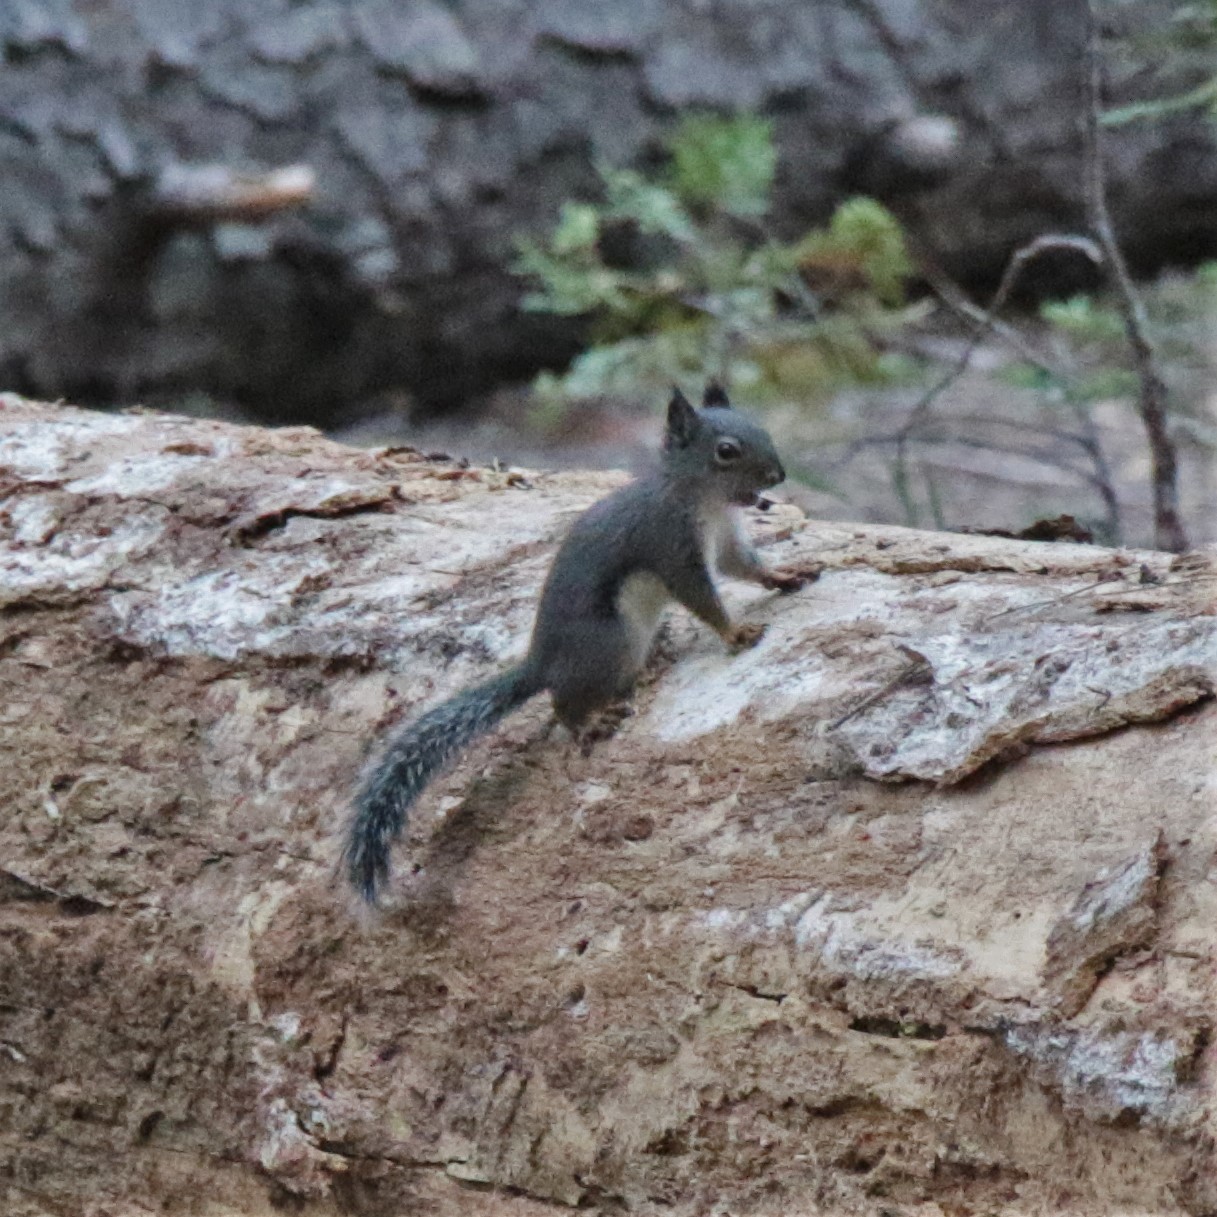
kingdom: Animalia
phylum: Chordata
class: Mammalia
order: Rodentia
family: Sciuridae
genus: Tamiasciurus
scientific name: Tamiasciurus douglasii
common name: Douglas's squirrel
